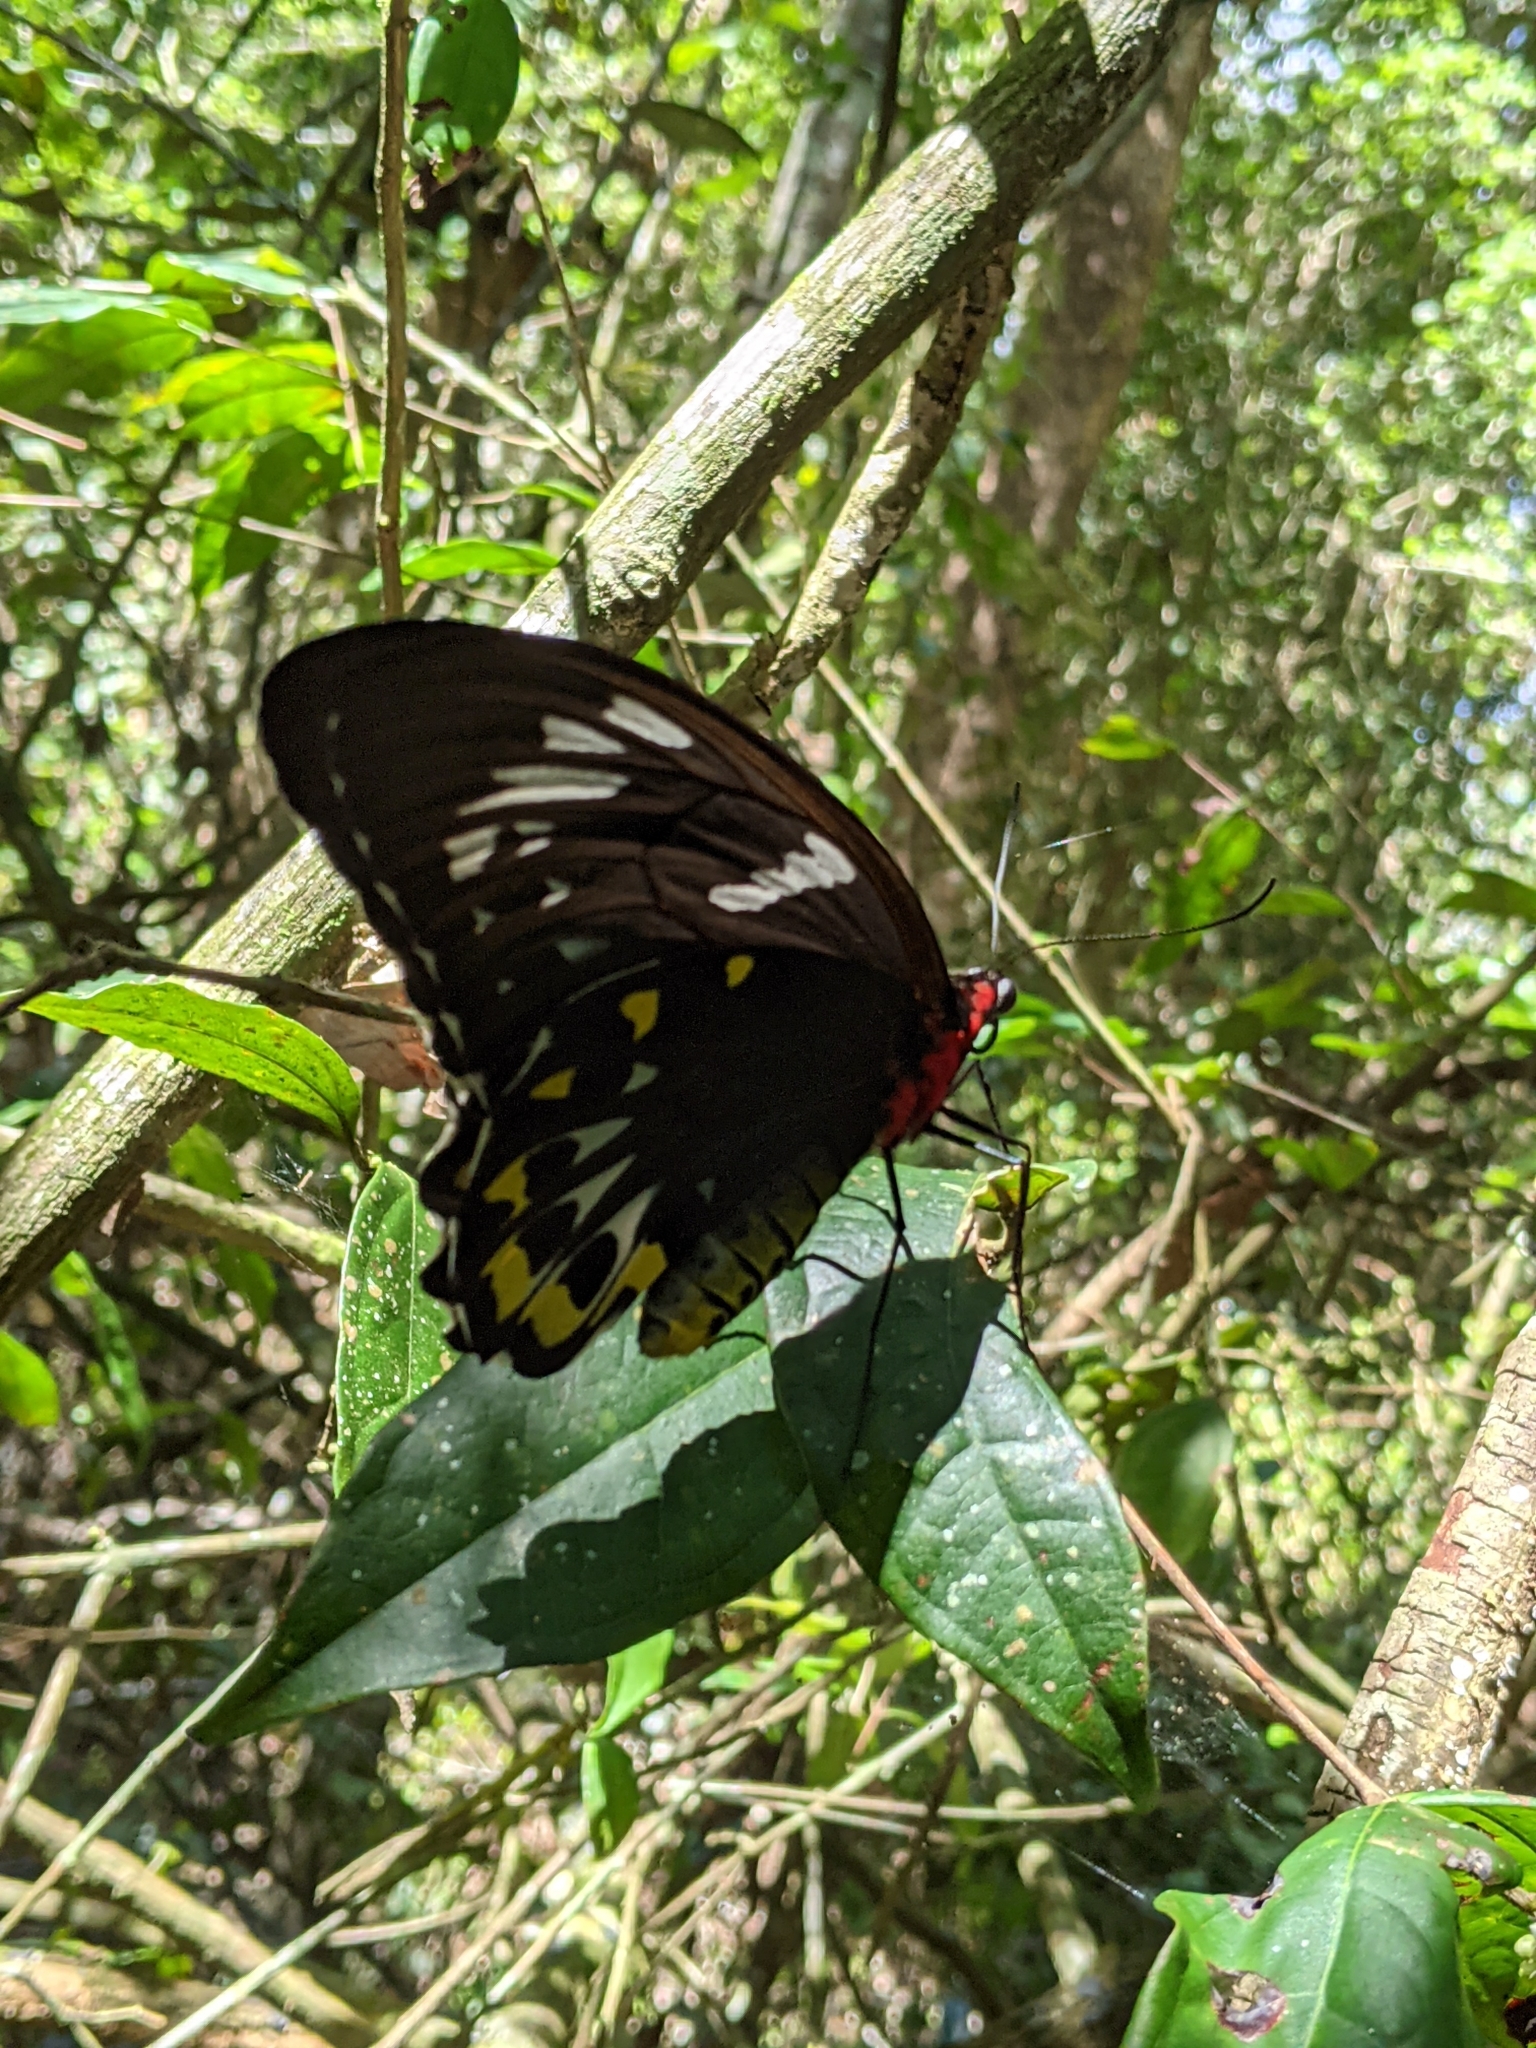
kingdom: Animalia
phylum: Arthropoda
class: Insecta
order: Lepidoptera
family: Papilionidae
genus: Ornithoptera
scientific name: Ornithoptera euphorion
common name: Cairns birdwing
